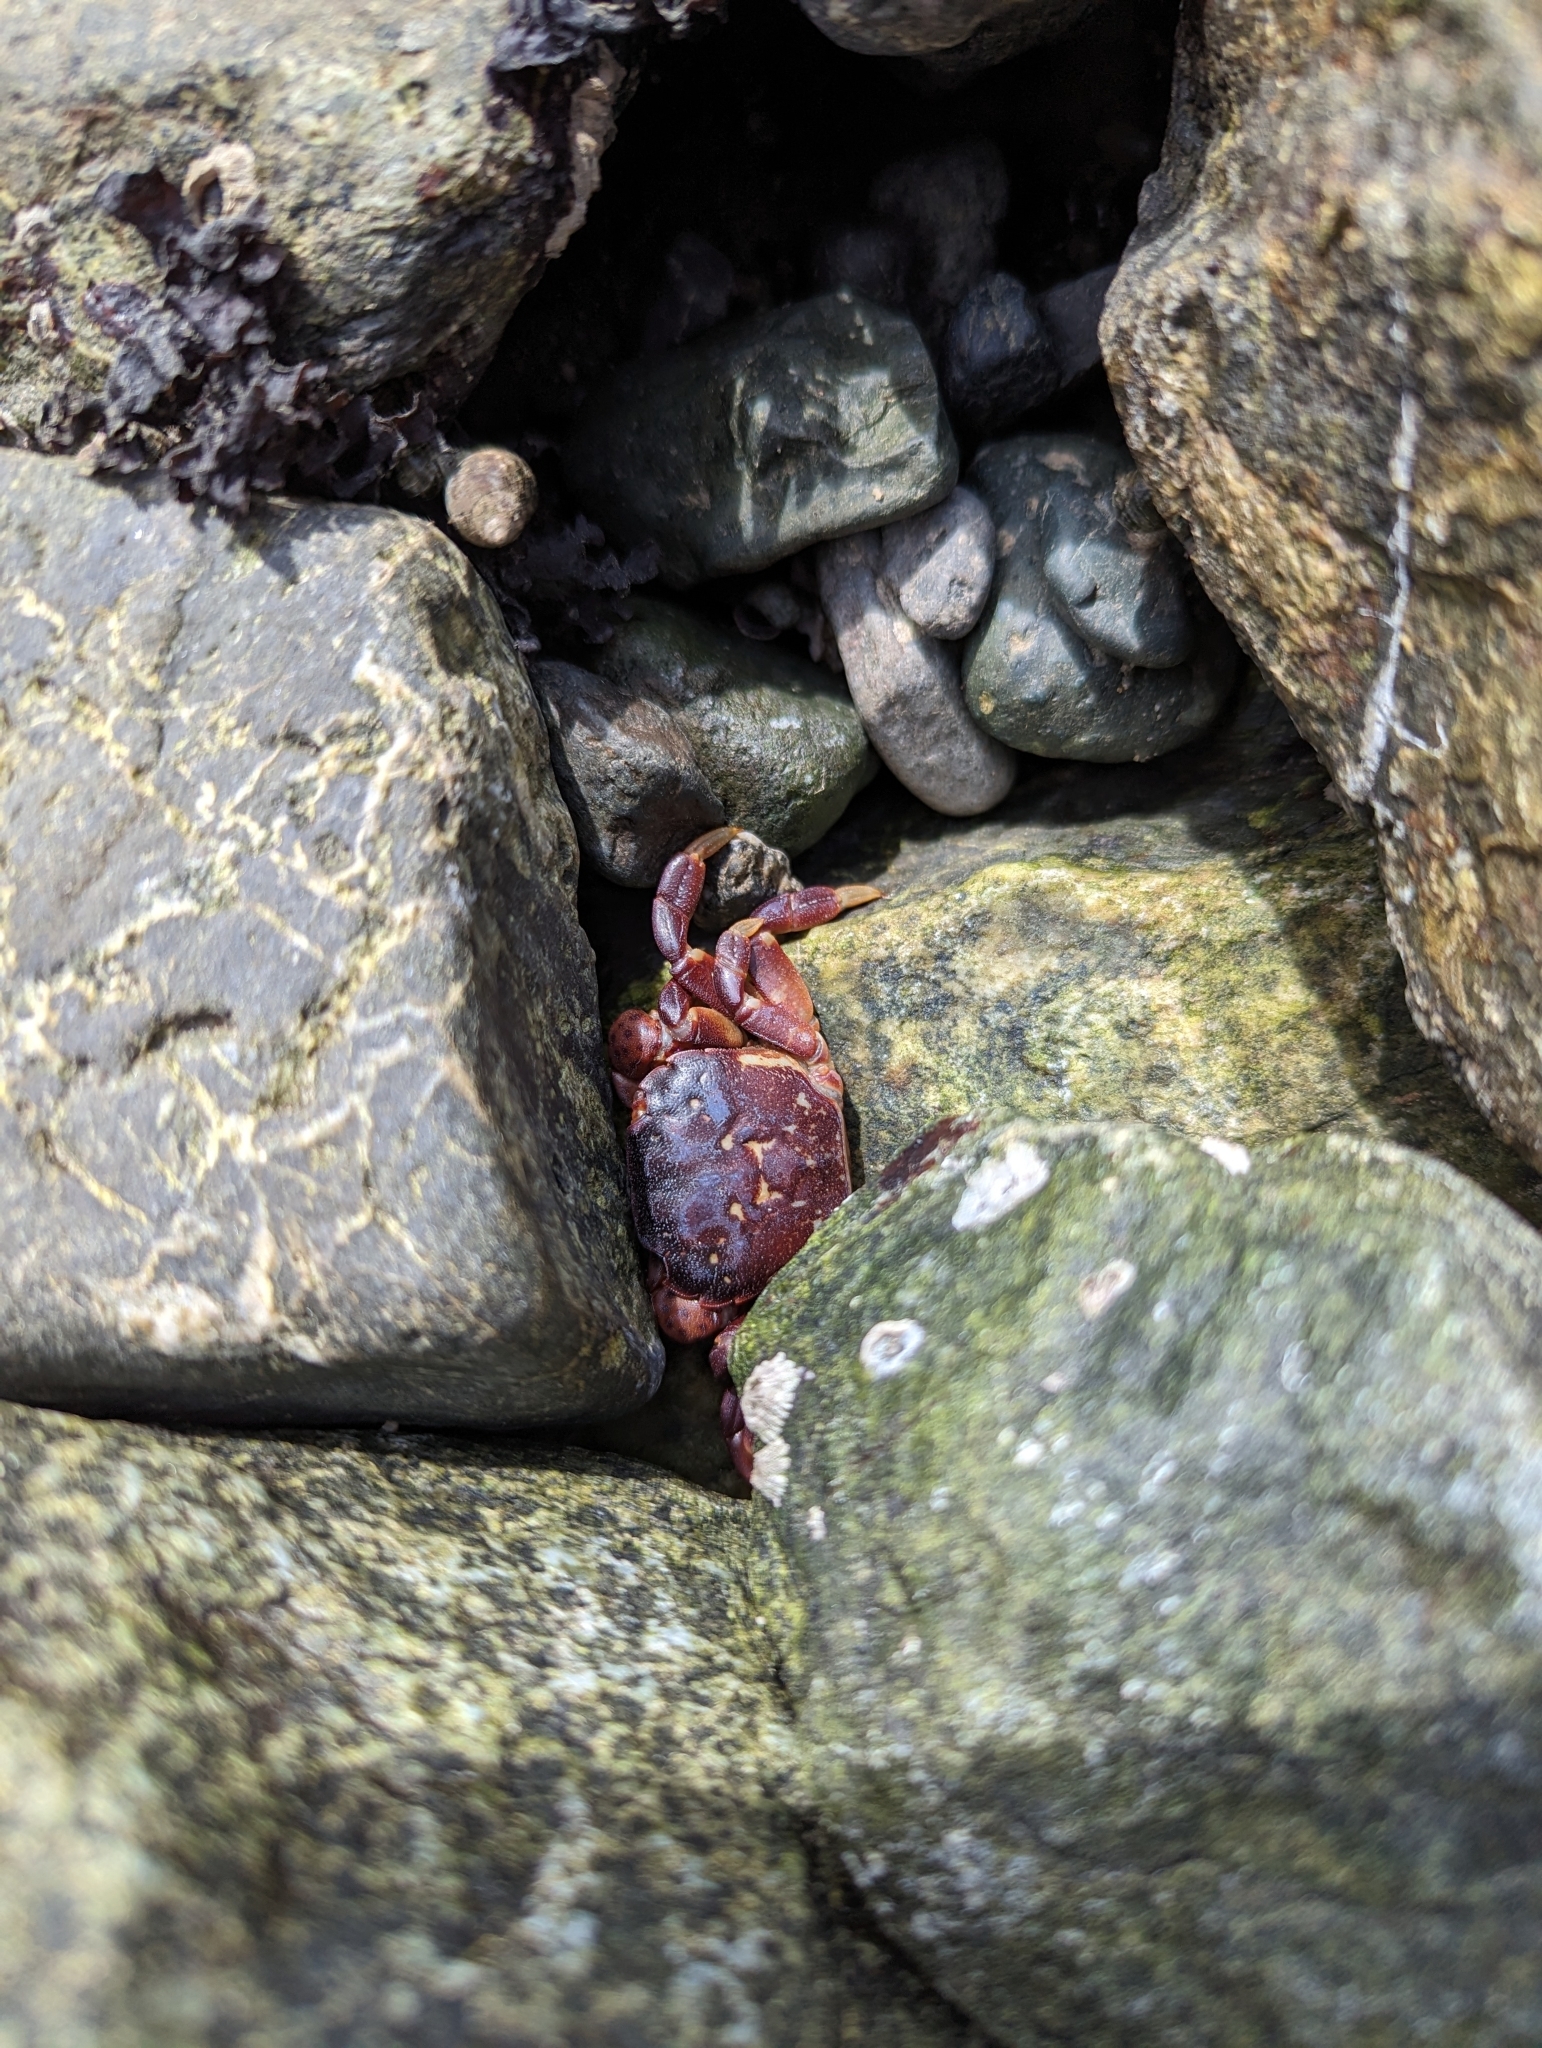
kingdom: Animalia
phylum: Arthropoda
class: Malacostraca
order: Decapoda
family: Varunidae
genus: Hemigrapsus
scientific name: Hemigrapsus nudus
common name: Purple shore crab
